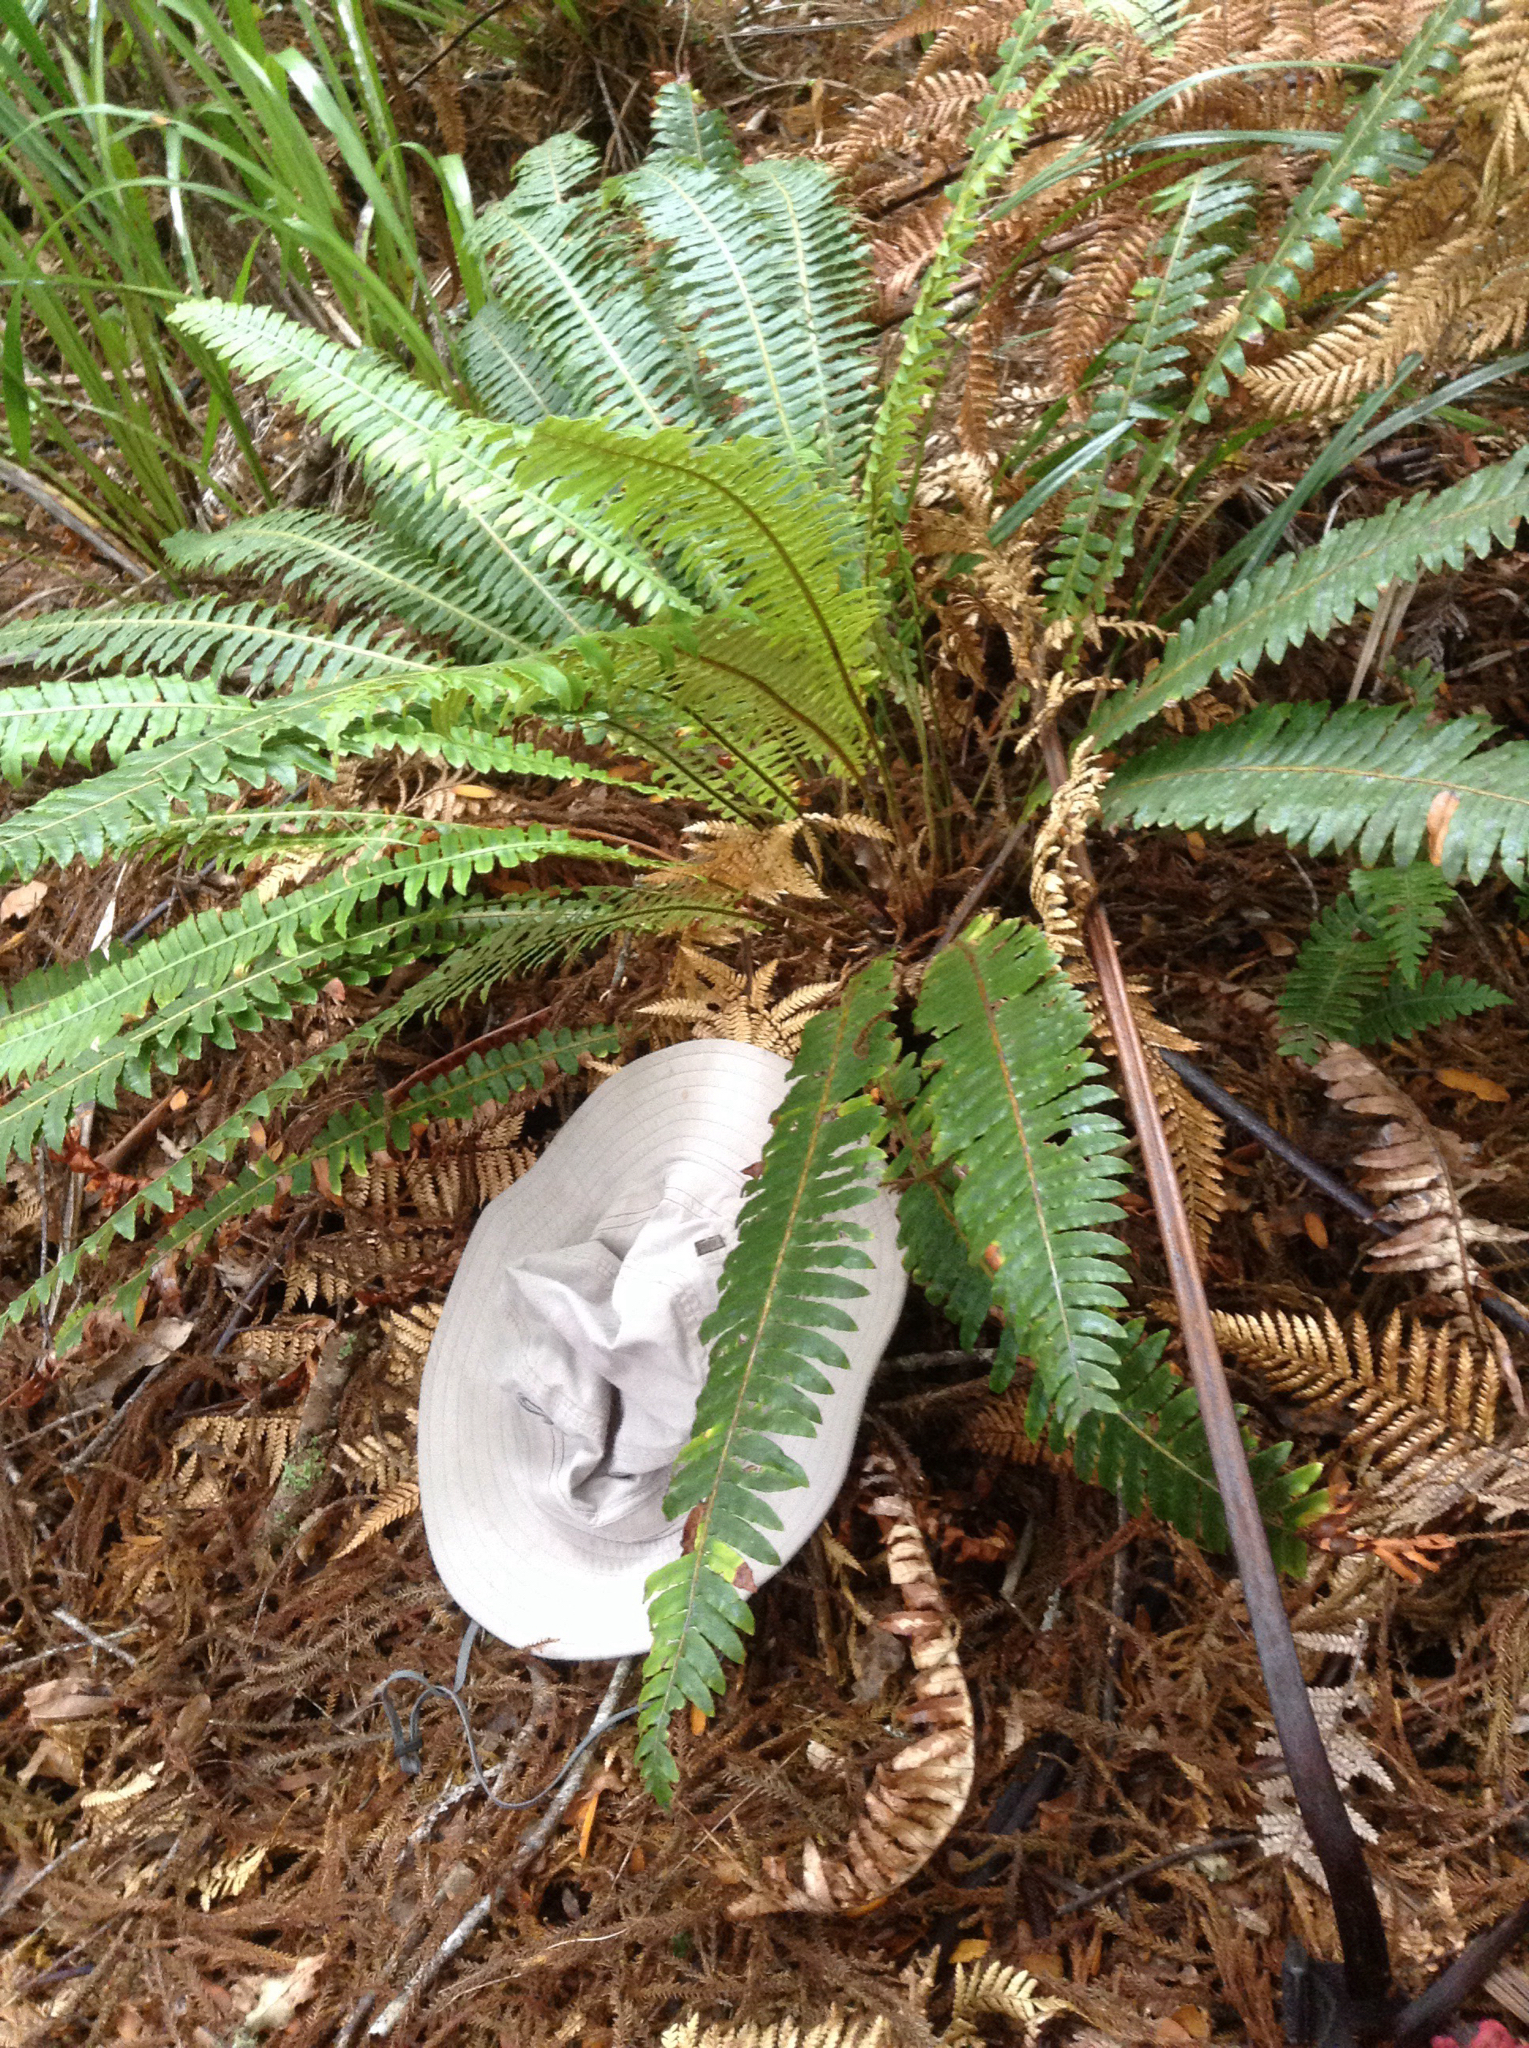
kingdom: Plantae
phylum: Tracheophyta
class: Polypodiopsida
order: Polypodiales
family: Blechnaceae
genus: Lomaria
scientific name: Lomaria discolor
